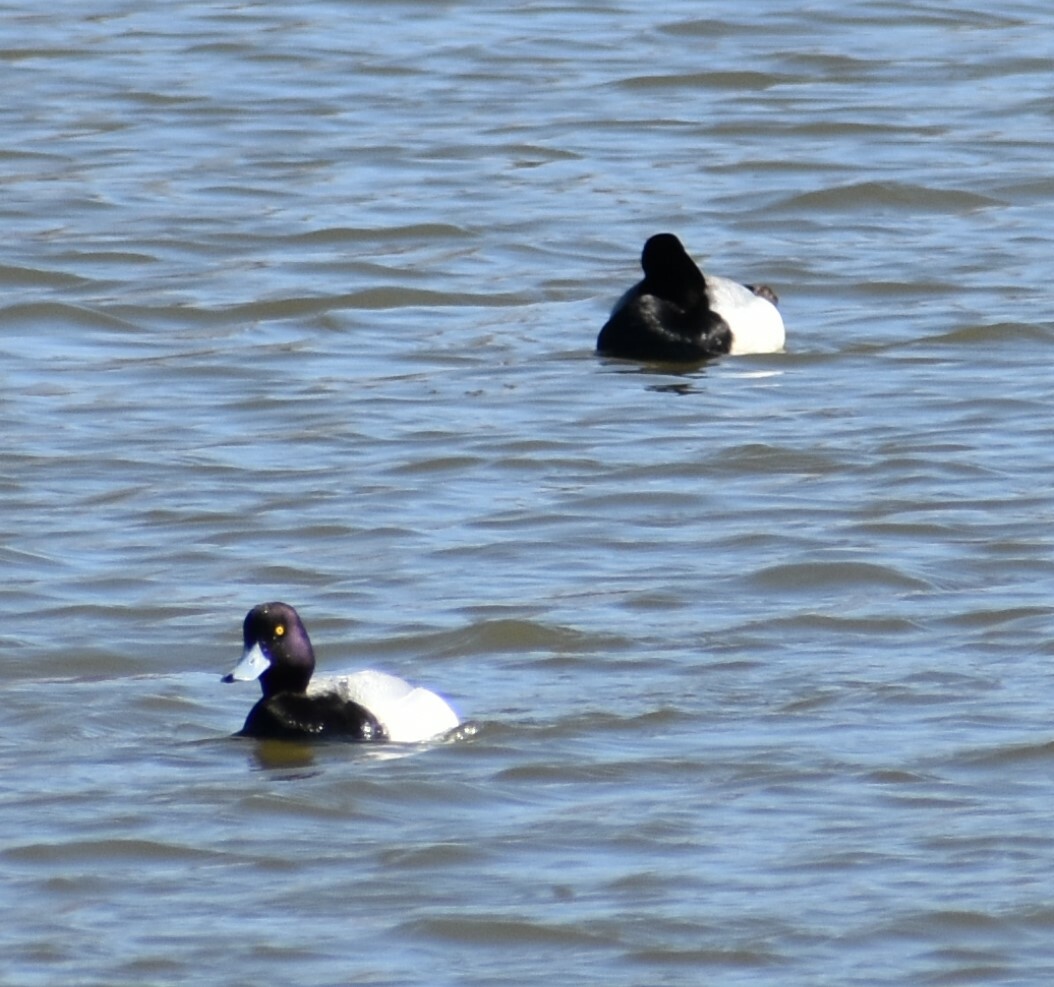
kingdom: Animalia
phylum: Chordata
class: Aves
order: Anseriformes
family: Anatidae
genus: Aythya
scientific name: Aythya affinis
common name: Lesser scaup
